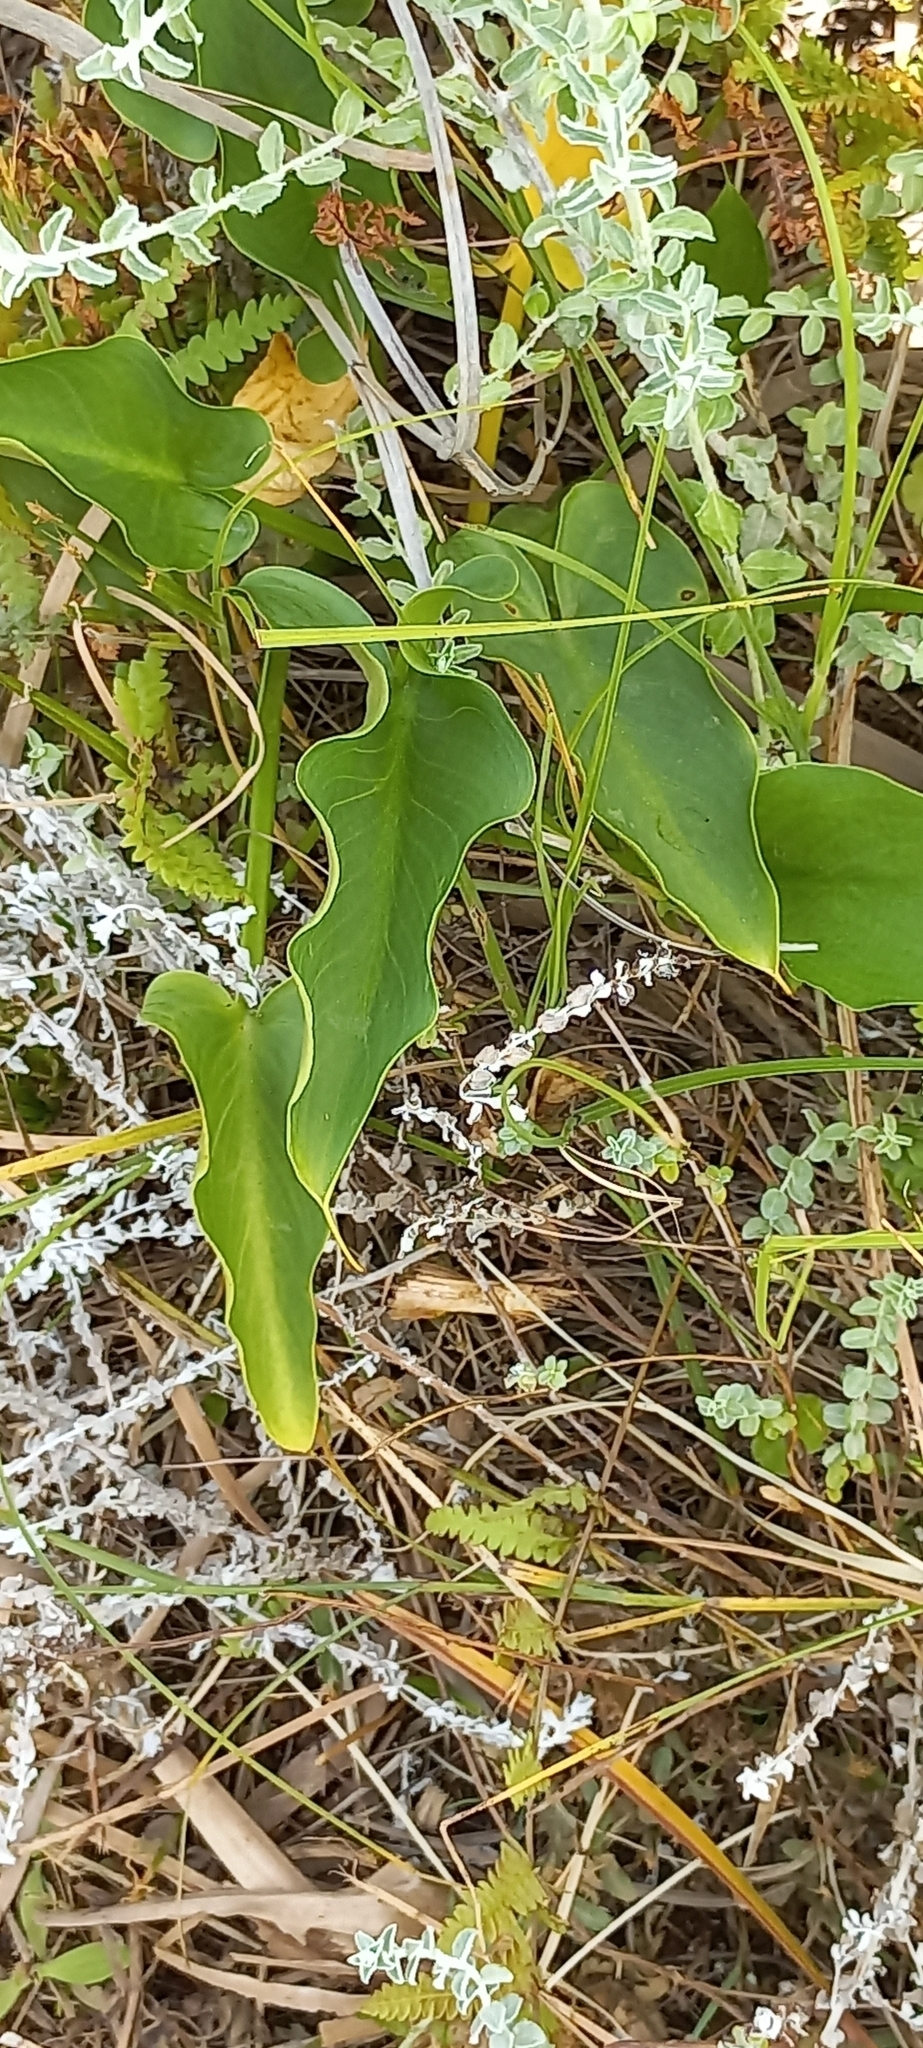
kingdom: Plantae
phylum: Tracheophyta
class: Liliopsida
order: Alismatales
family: Araceae
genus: Zantedeschia
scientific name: Zantedeschia aethiopica
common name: Altar-lily
